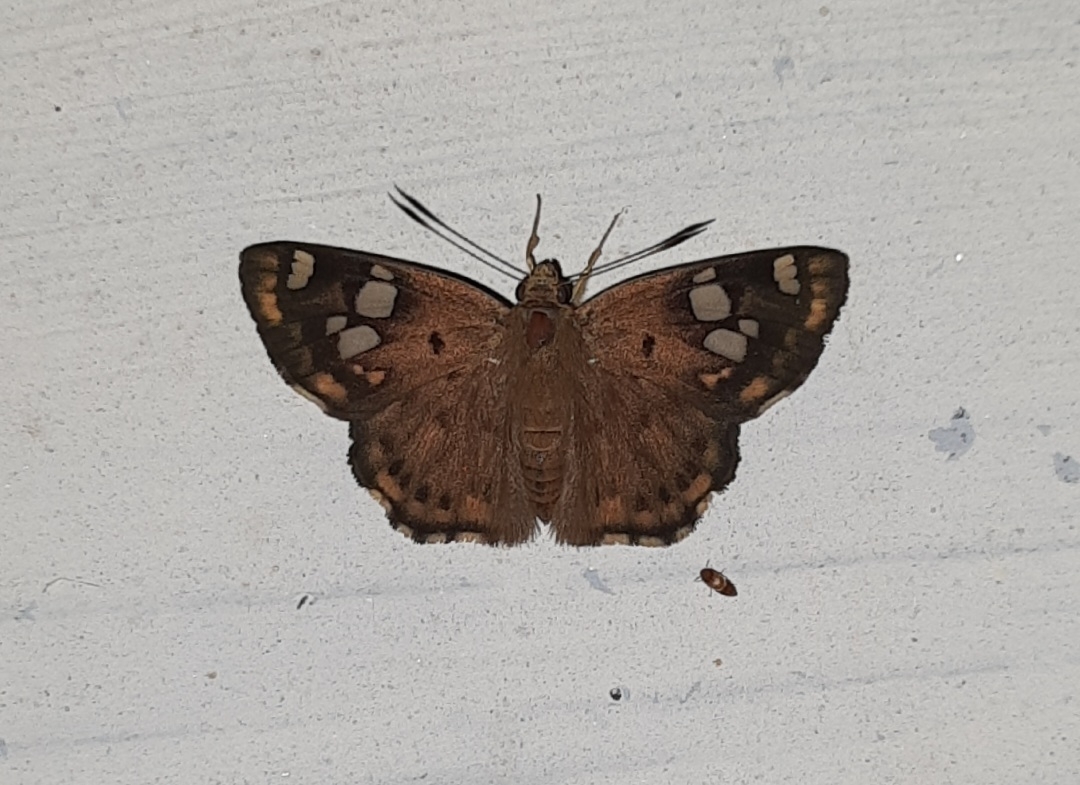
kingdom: Animalia
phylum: Arthropoda
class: Insecta
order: Lepidoptera
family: Hesperiidae
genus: Coladenia
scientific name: Coladenia
